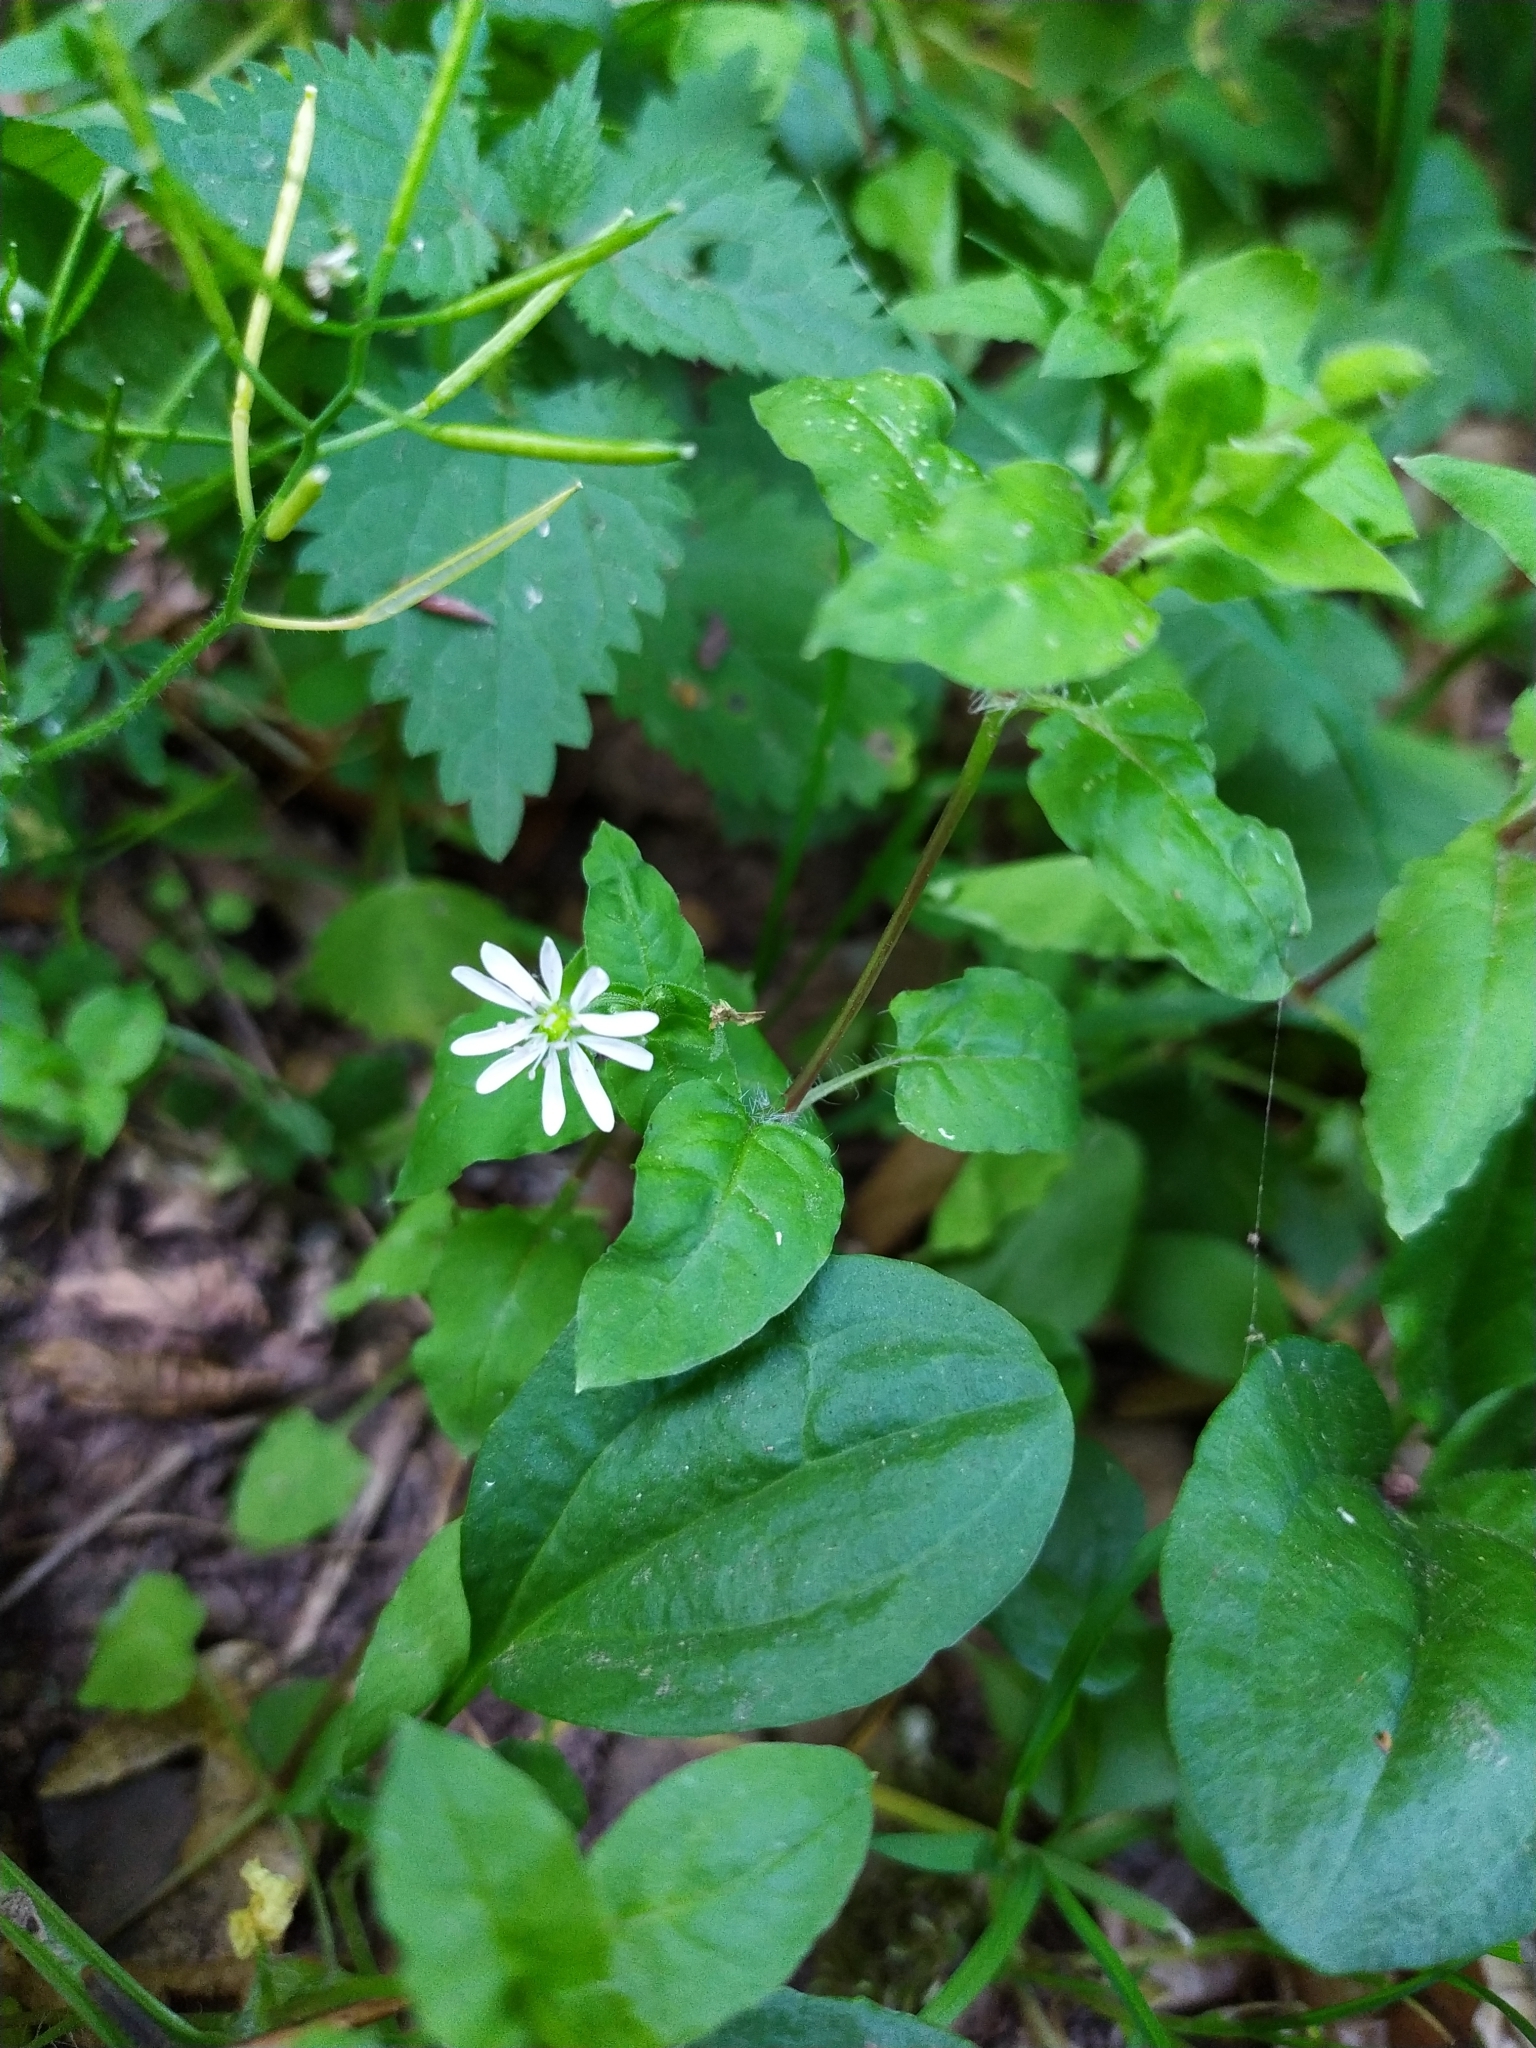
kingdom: Plantae
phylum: Tracheophyta
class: Magnoliopsida
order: Caryophyllales
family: Caryophyllaceae
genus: Stellaria
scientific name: Stellaria nemorum
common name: Wood stitchwort
